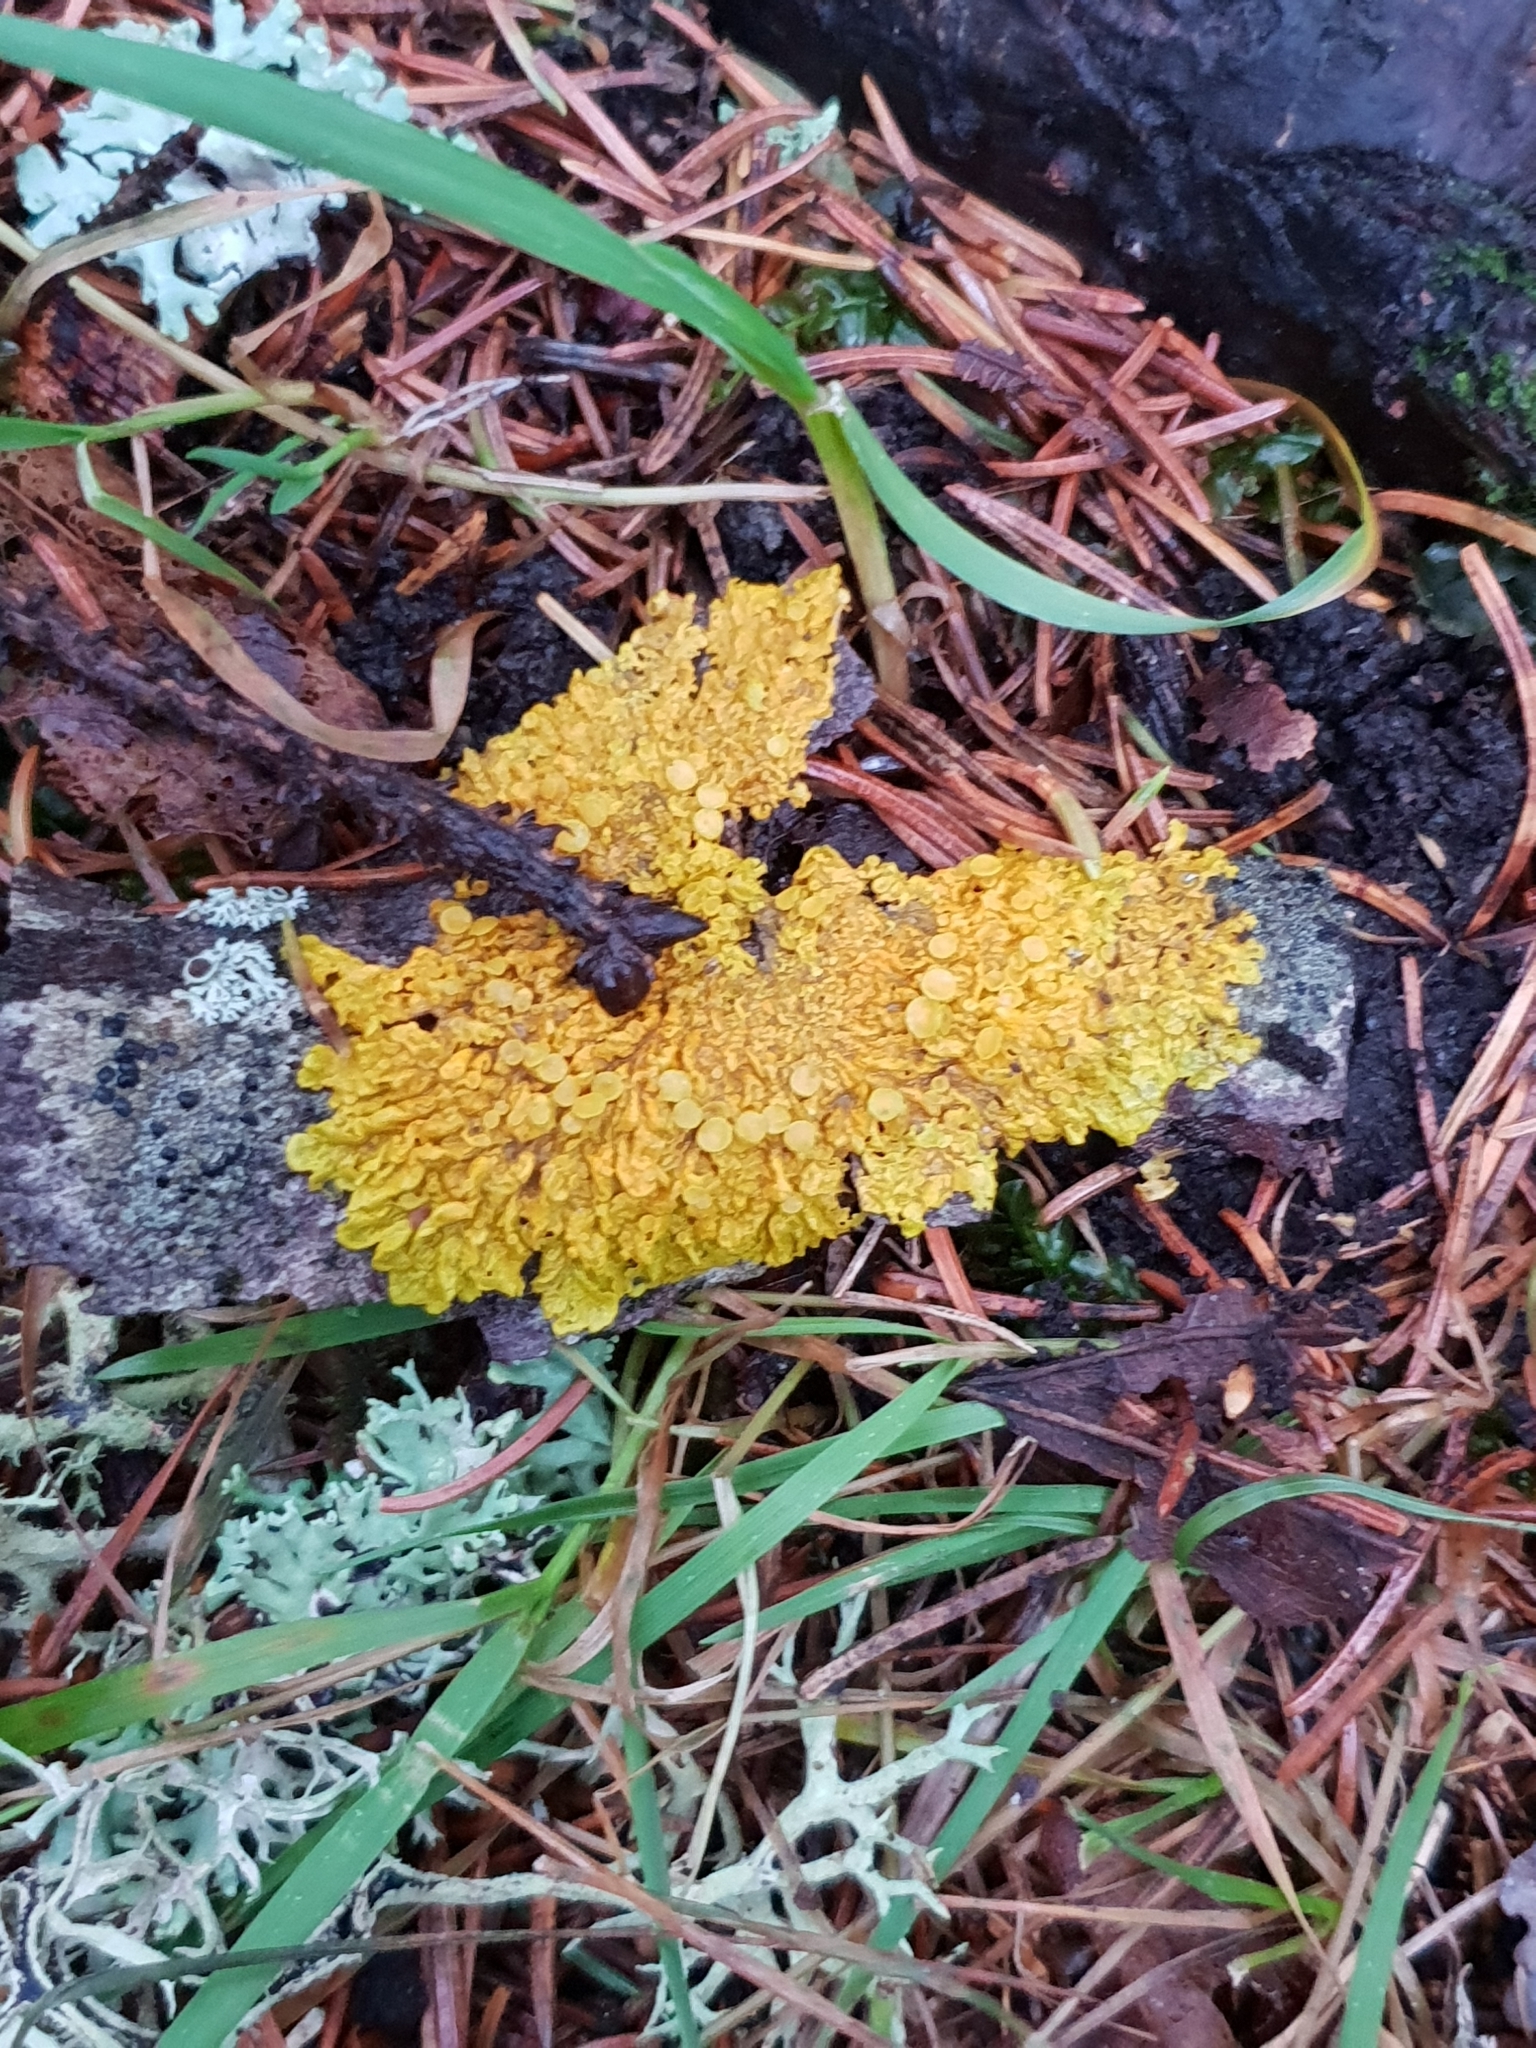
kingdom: Fungi
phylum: Ascomycota
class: Lecanoromycetes
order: Teloschistales
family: Teloschistaceae
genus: Xanthoria
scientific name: Xanthoria parietina
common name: Common orange lichen
